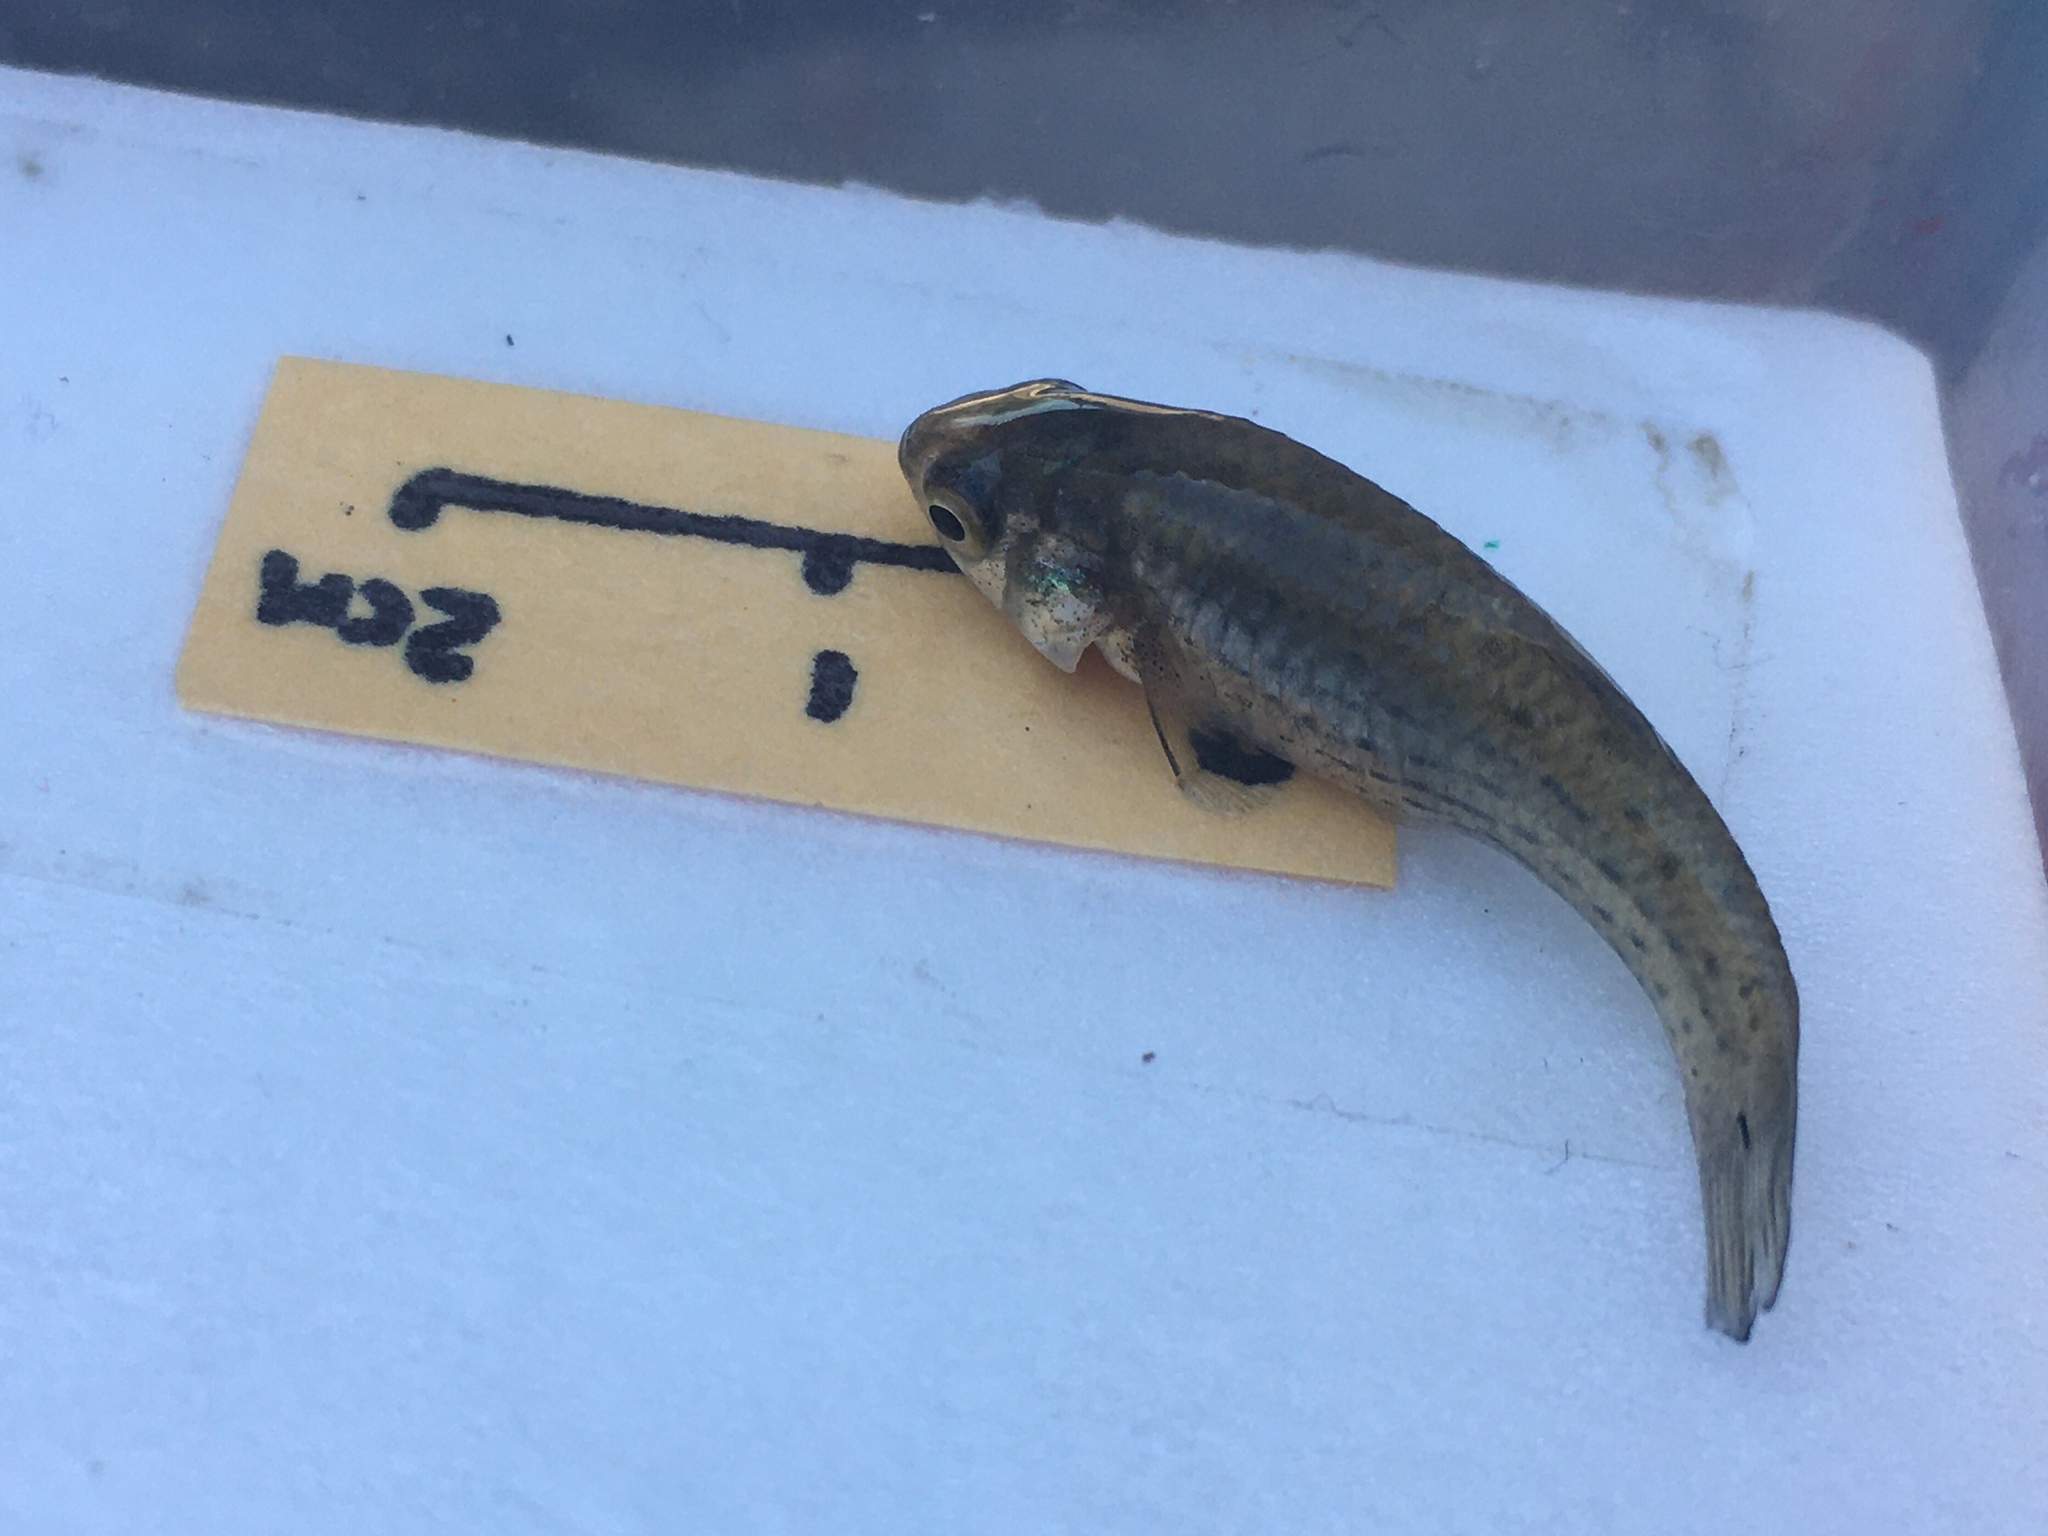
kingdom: Animalia
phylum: Chordata
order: Cyprinodontiformes
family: Anablepidae
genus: Jenynsia
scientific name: Jenynsia lineata
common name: Onesided livebearer
